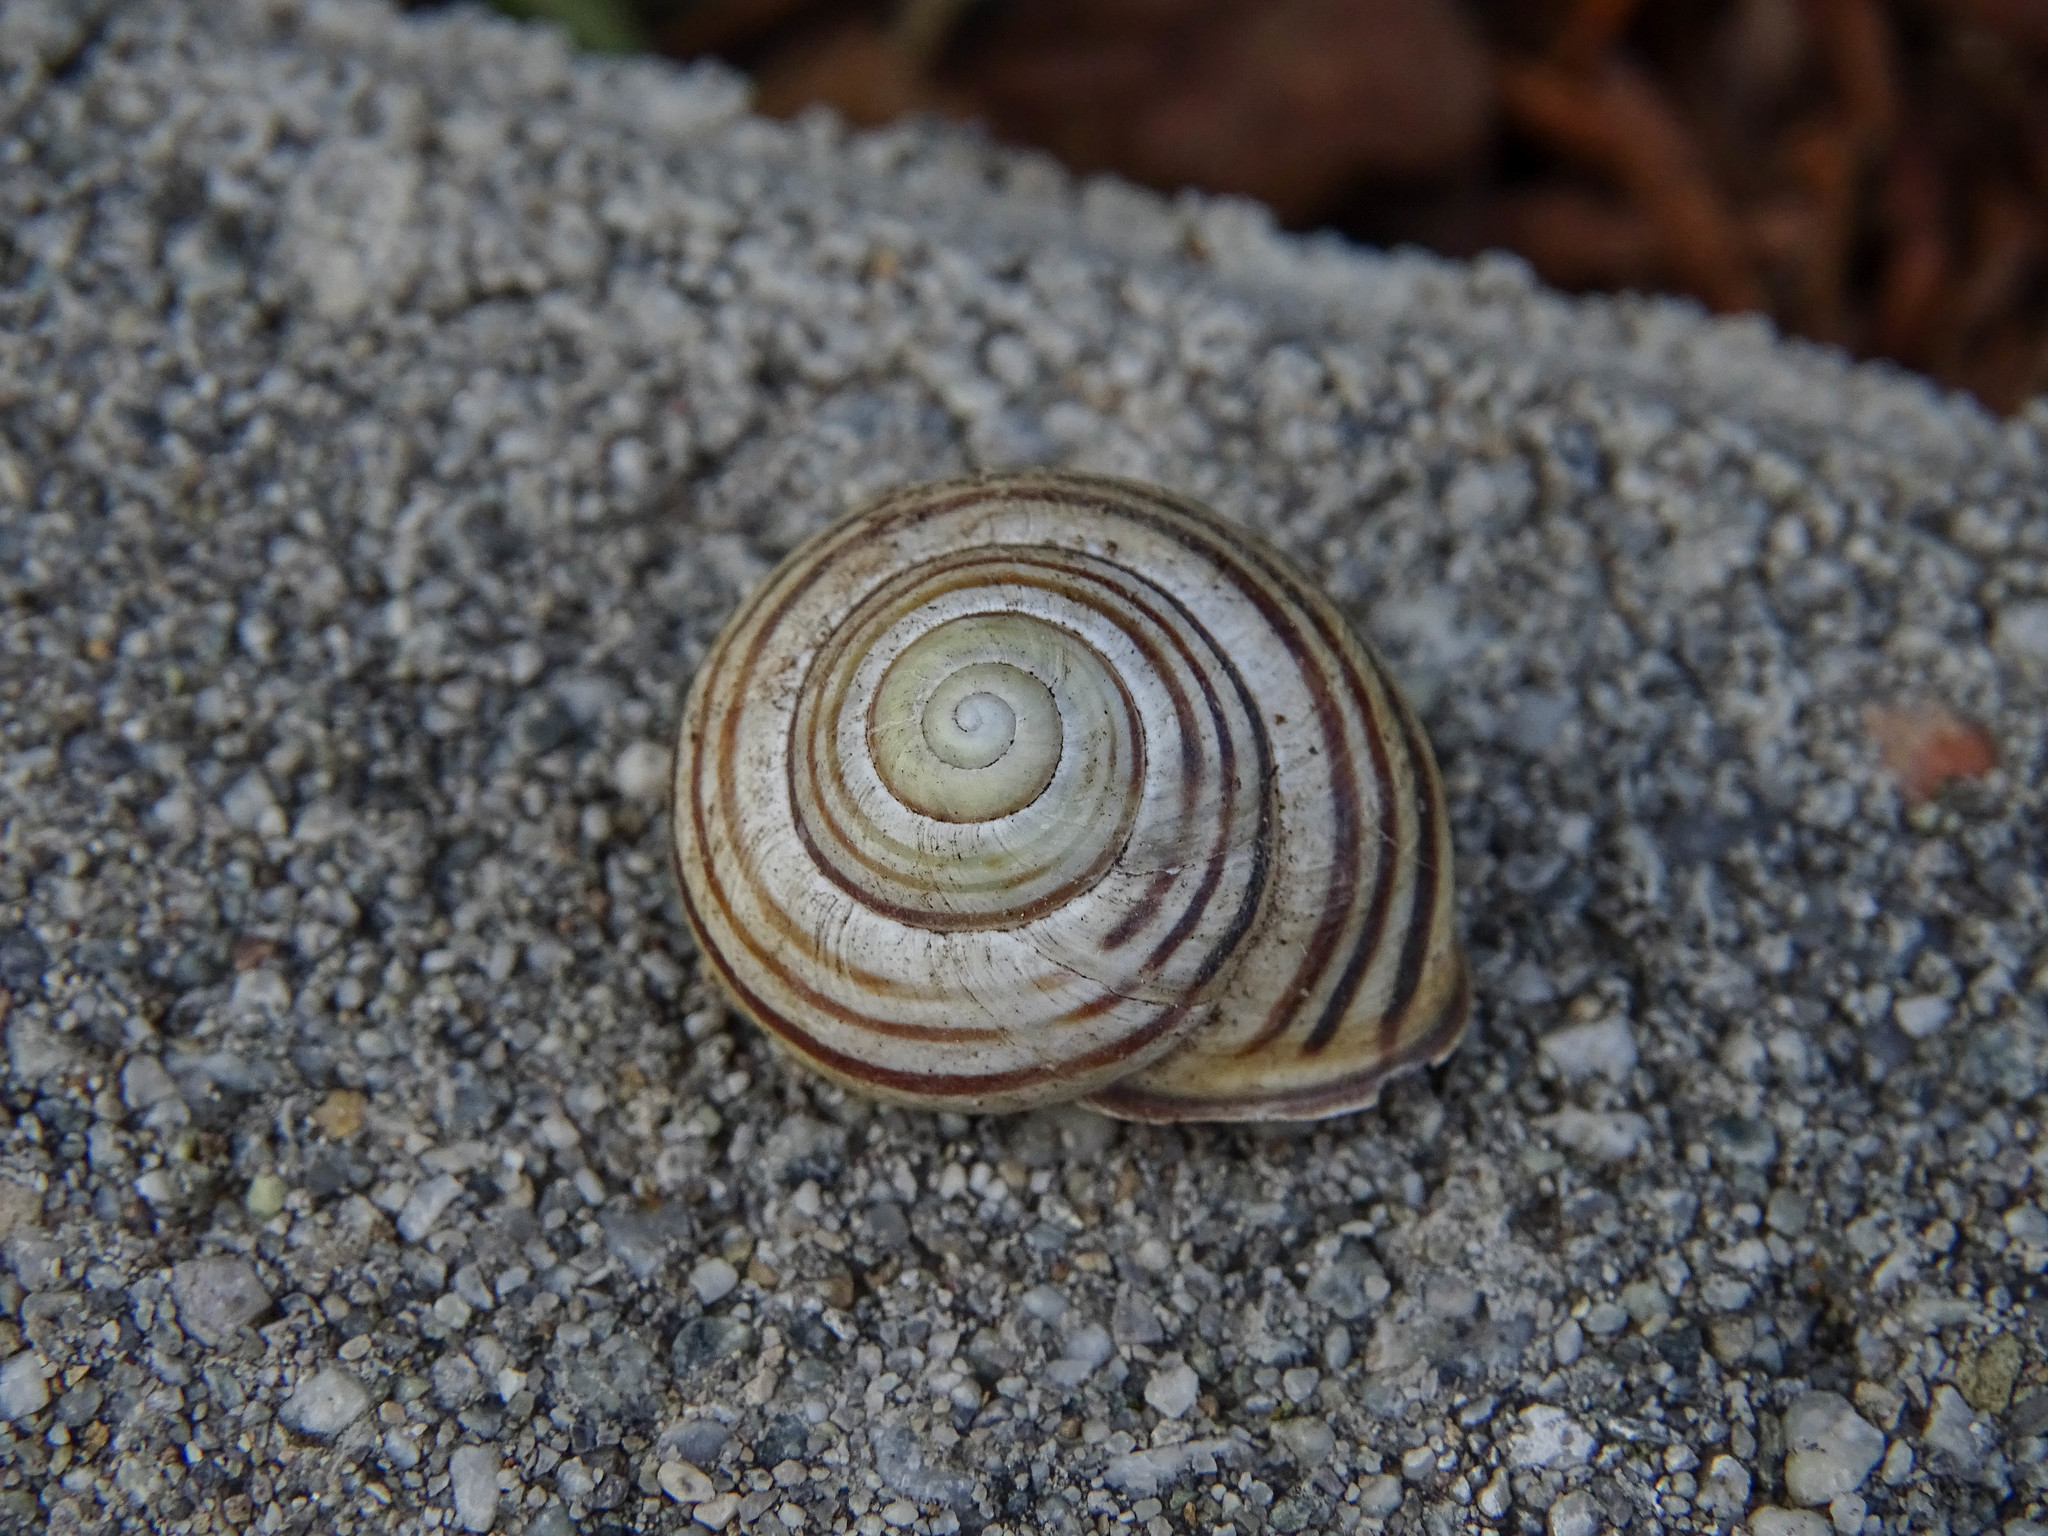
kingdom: Animalia
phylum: Mollusca
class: Gastropoda
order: Stylommatophora
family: Helicidae
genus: Cepaea
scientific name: Cepaea nemoralis
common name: Grovesnail
